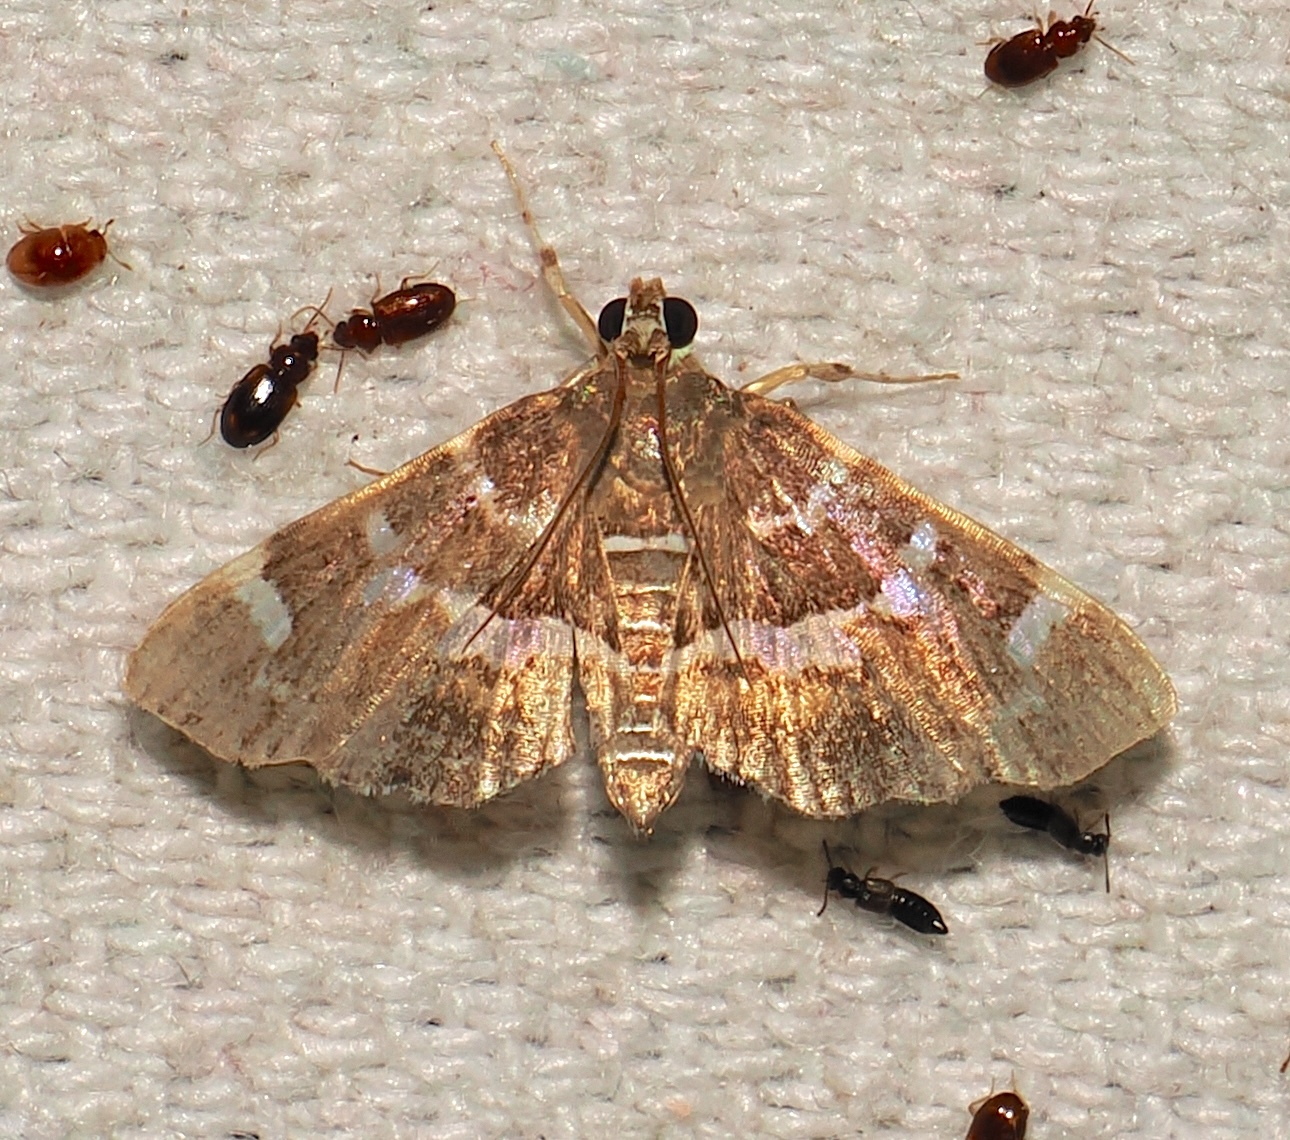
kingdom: Animalia
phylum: Arthropoda
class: Insecta
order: Lepidoptera
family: Crambidae
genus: Hymenia
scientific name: Hymenia perspectalis
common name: Spotted beet webworm
